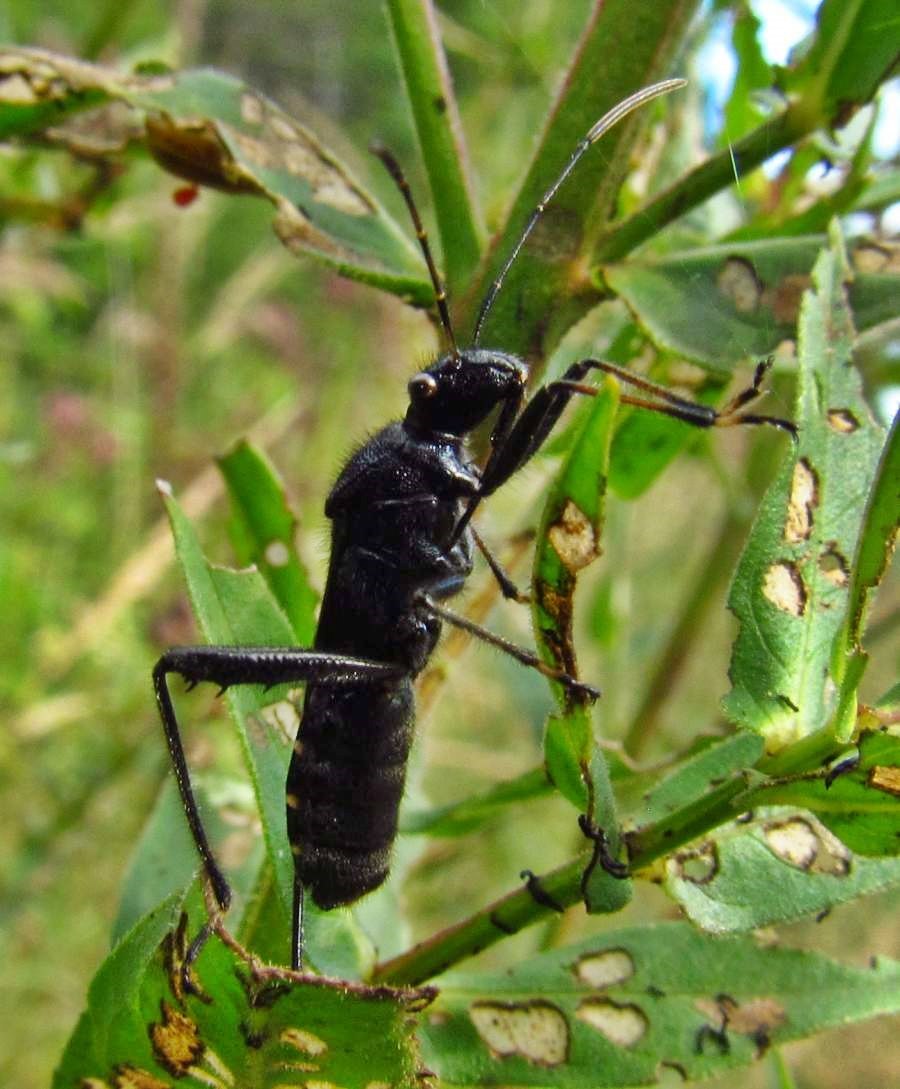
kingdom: Animalia
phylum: Arthropoda
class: Insecta
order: Hemiptera
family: Alydidae
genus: Alydus
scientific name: Alydus eurinus
